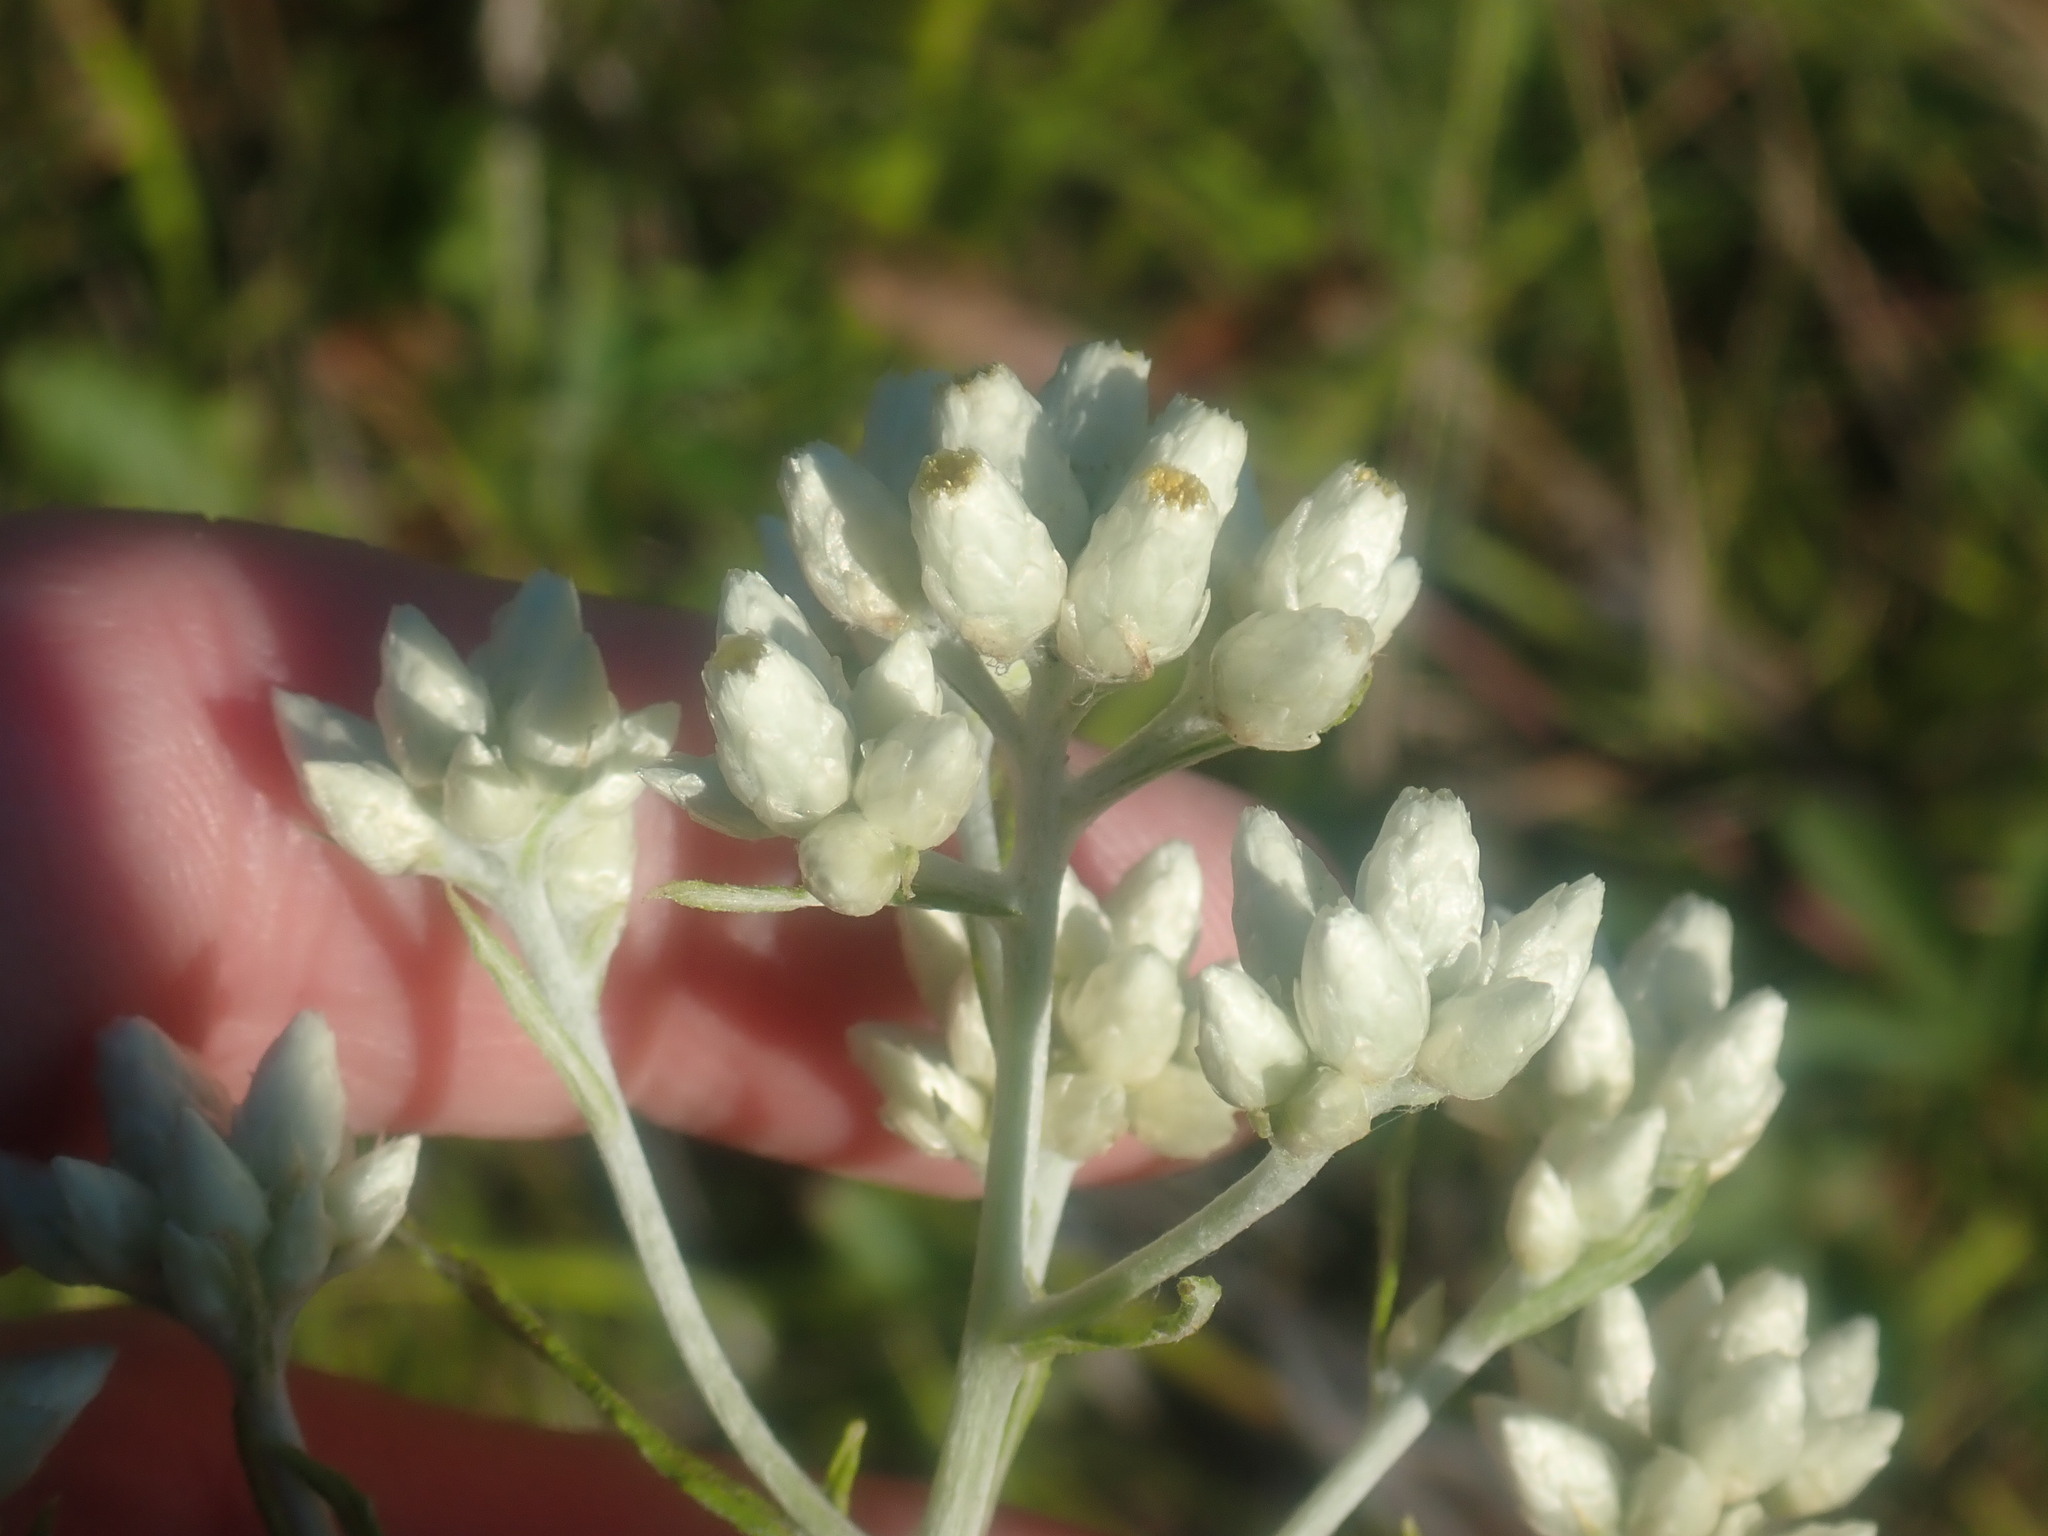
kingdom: Plantae
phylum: Tracheophyta
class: Magnoliopsida
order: Asterales
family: Asteraceae
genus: Pseudognaphalium
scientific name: Pseudognaphalium obtusifolium
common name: Eastern rabbit-tobacco
